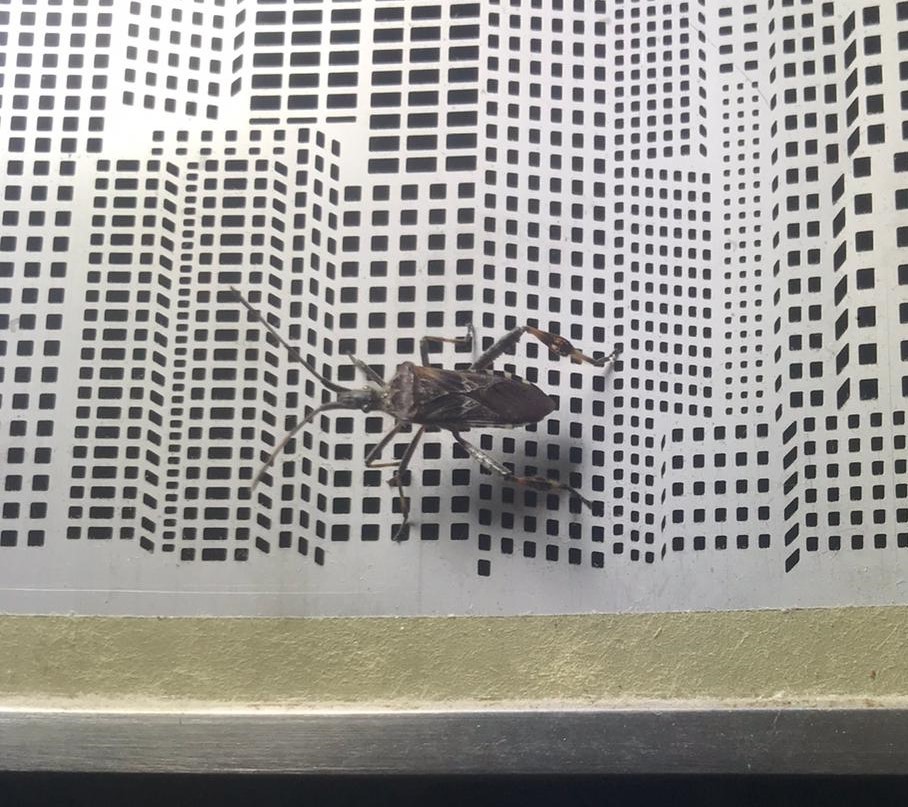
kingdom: Animalia
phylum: Arthropoda
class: Insecta
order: Hemiptera
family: Coreidae
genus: Leptoglossus
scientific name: Leptoglossus occidentalis
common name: Western conifer-seed bug
